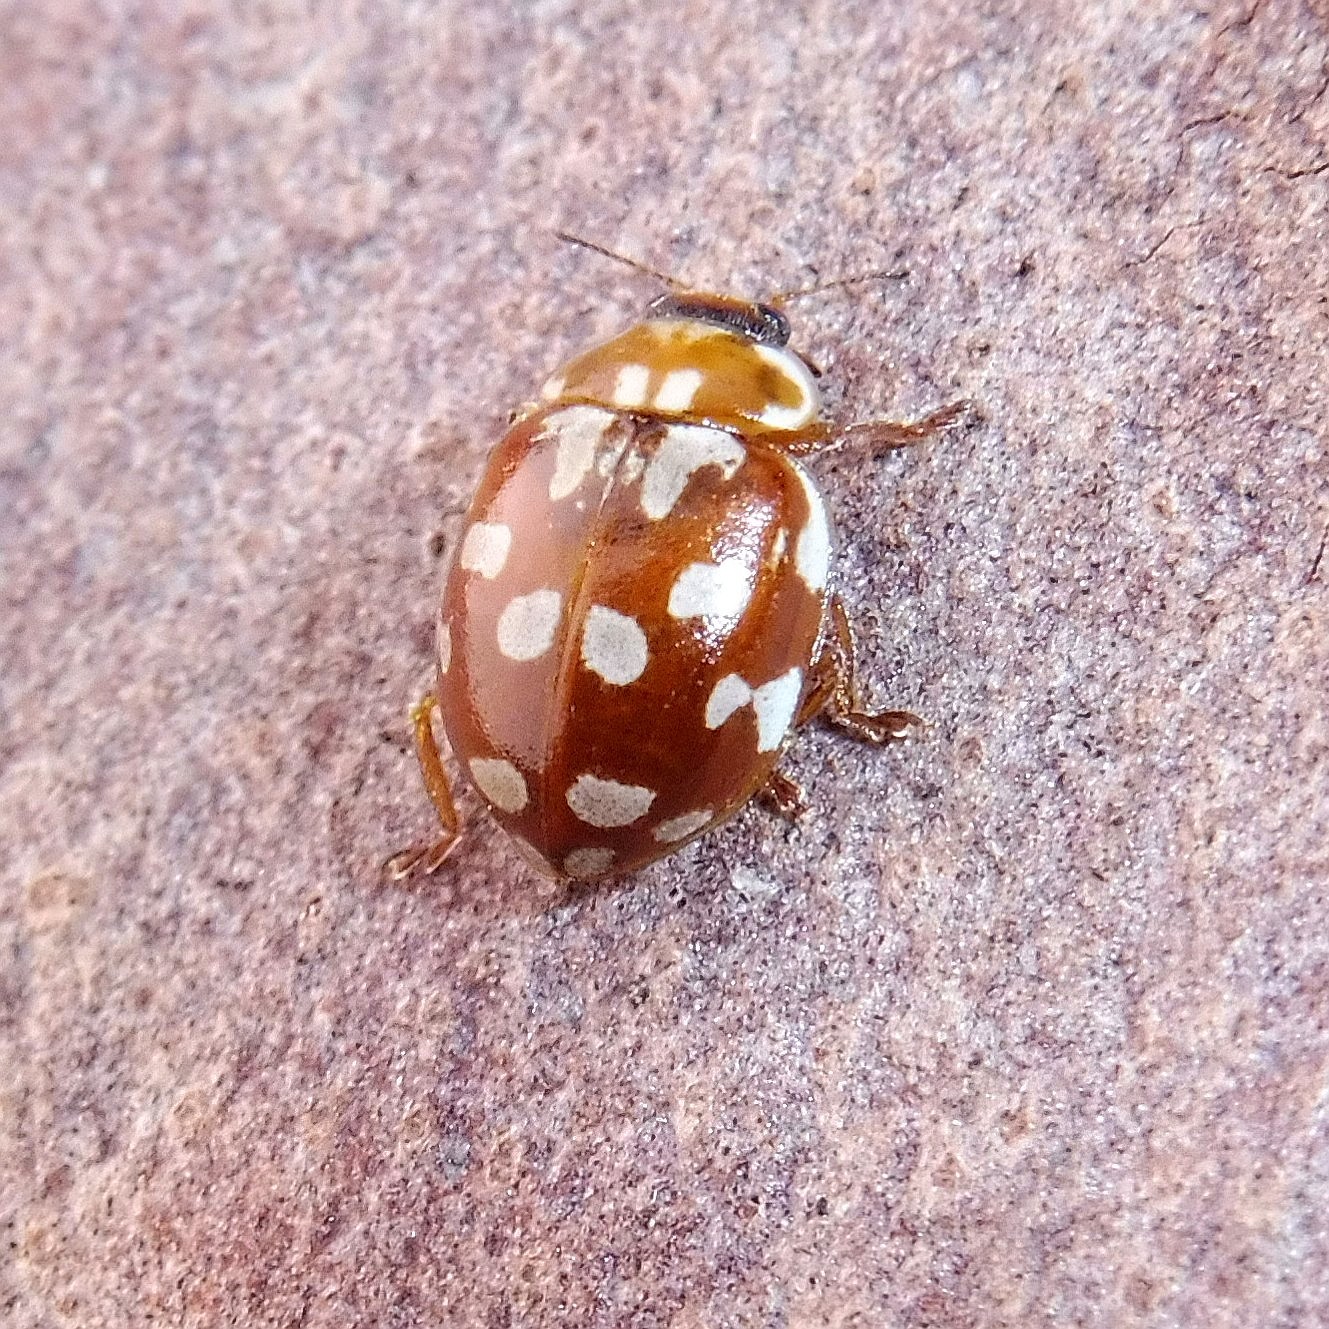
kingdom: Animalia
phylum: Arthropoda
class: Insecta
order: Coleoptera
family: Coccinellidae
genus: Myrrha
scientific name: Myrrha octodecimguttata
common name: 18-spot ladybird
